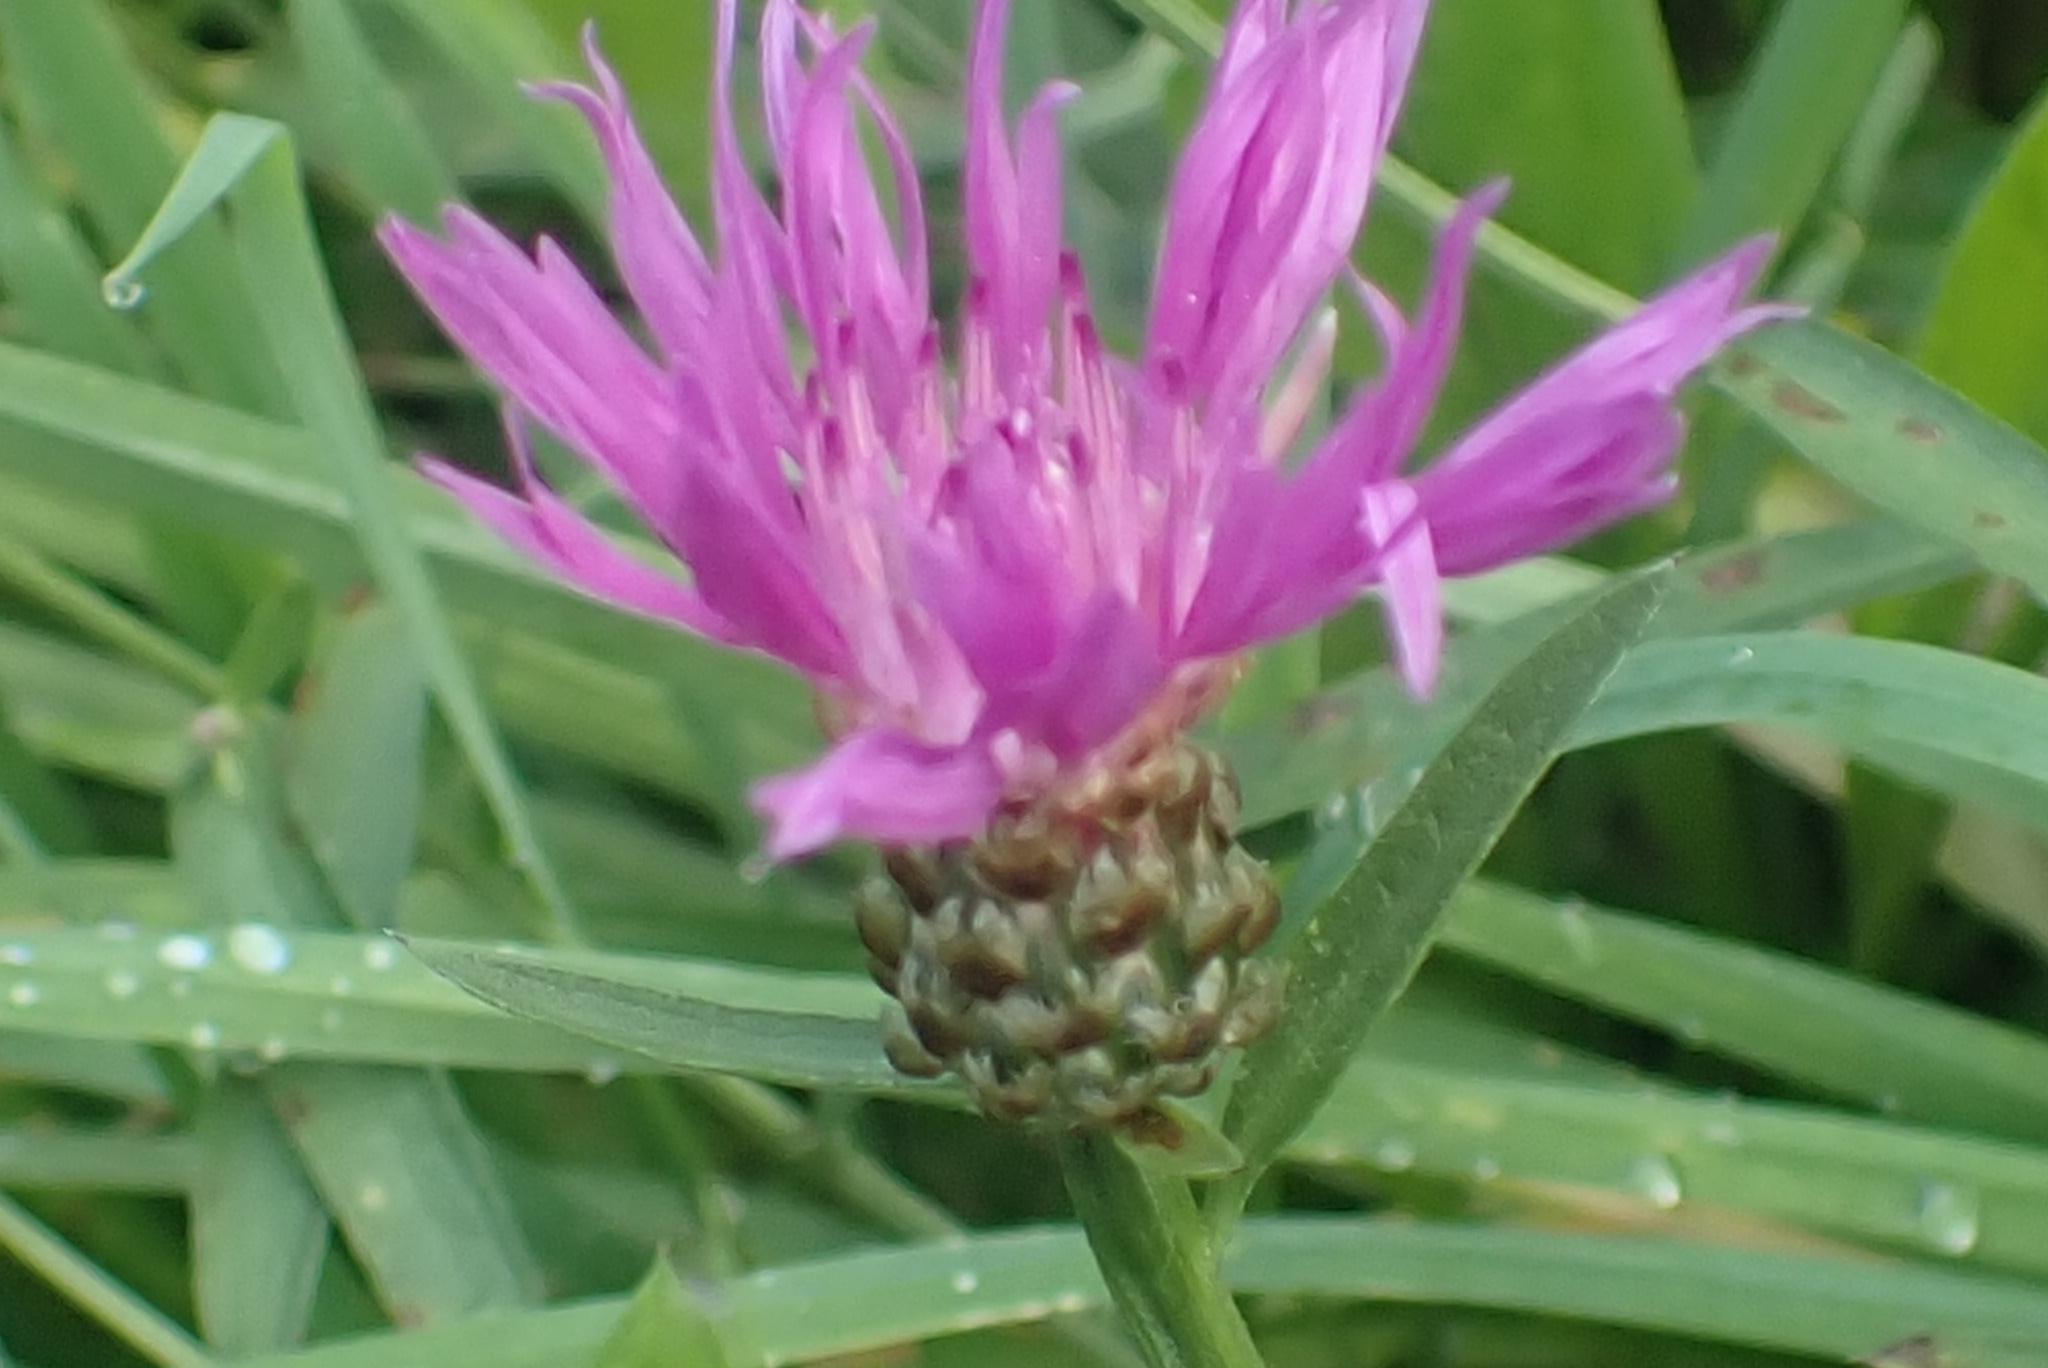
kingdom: Plantae
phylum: Tracheophyta
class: Magnoliopsida
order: Asterales
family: Asteraceae
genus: Centaurea
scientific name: Centaurea jacea
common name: Brown knapweed
